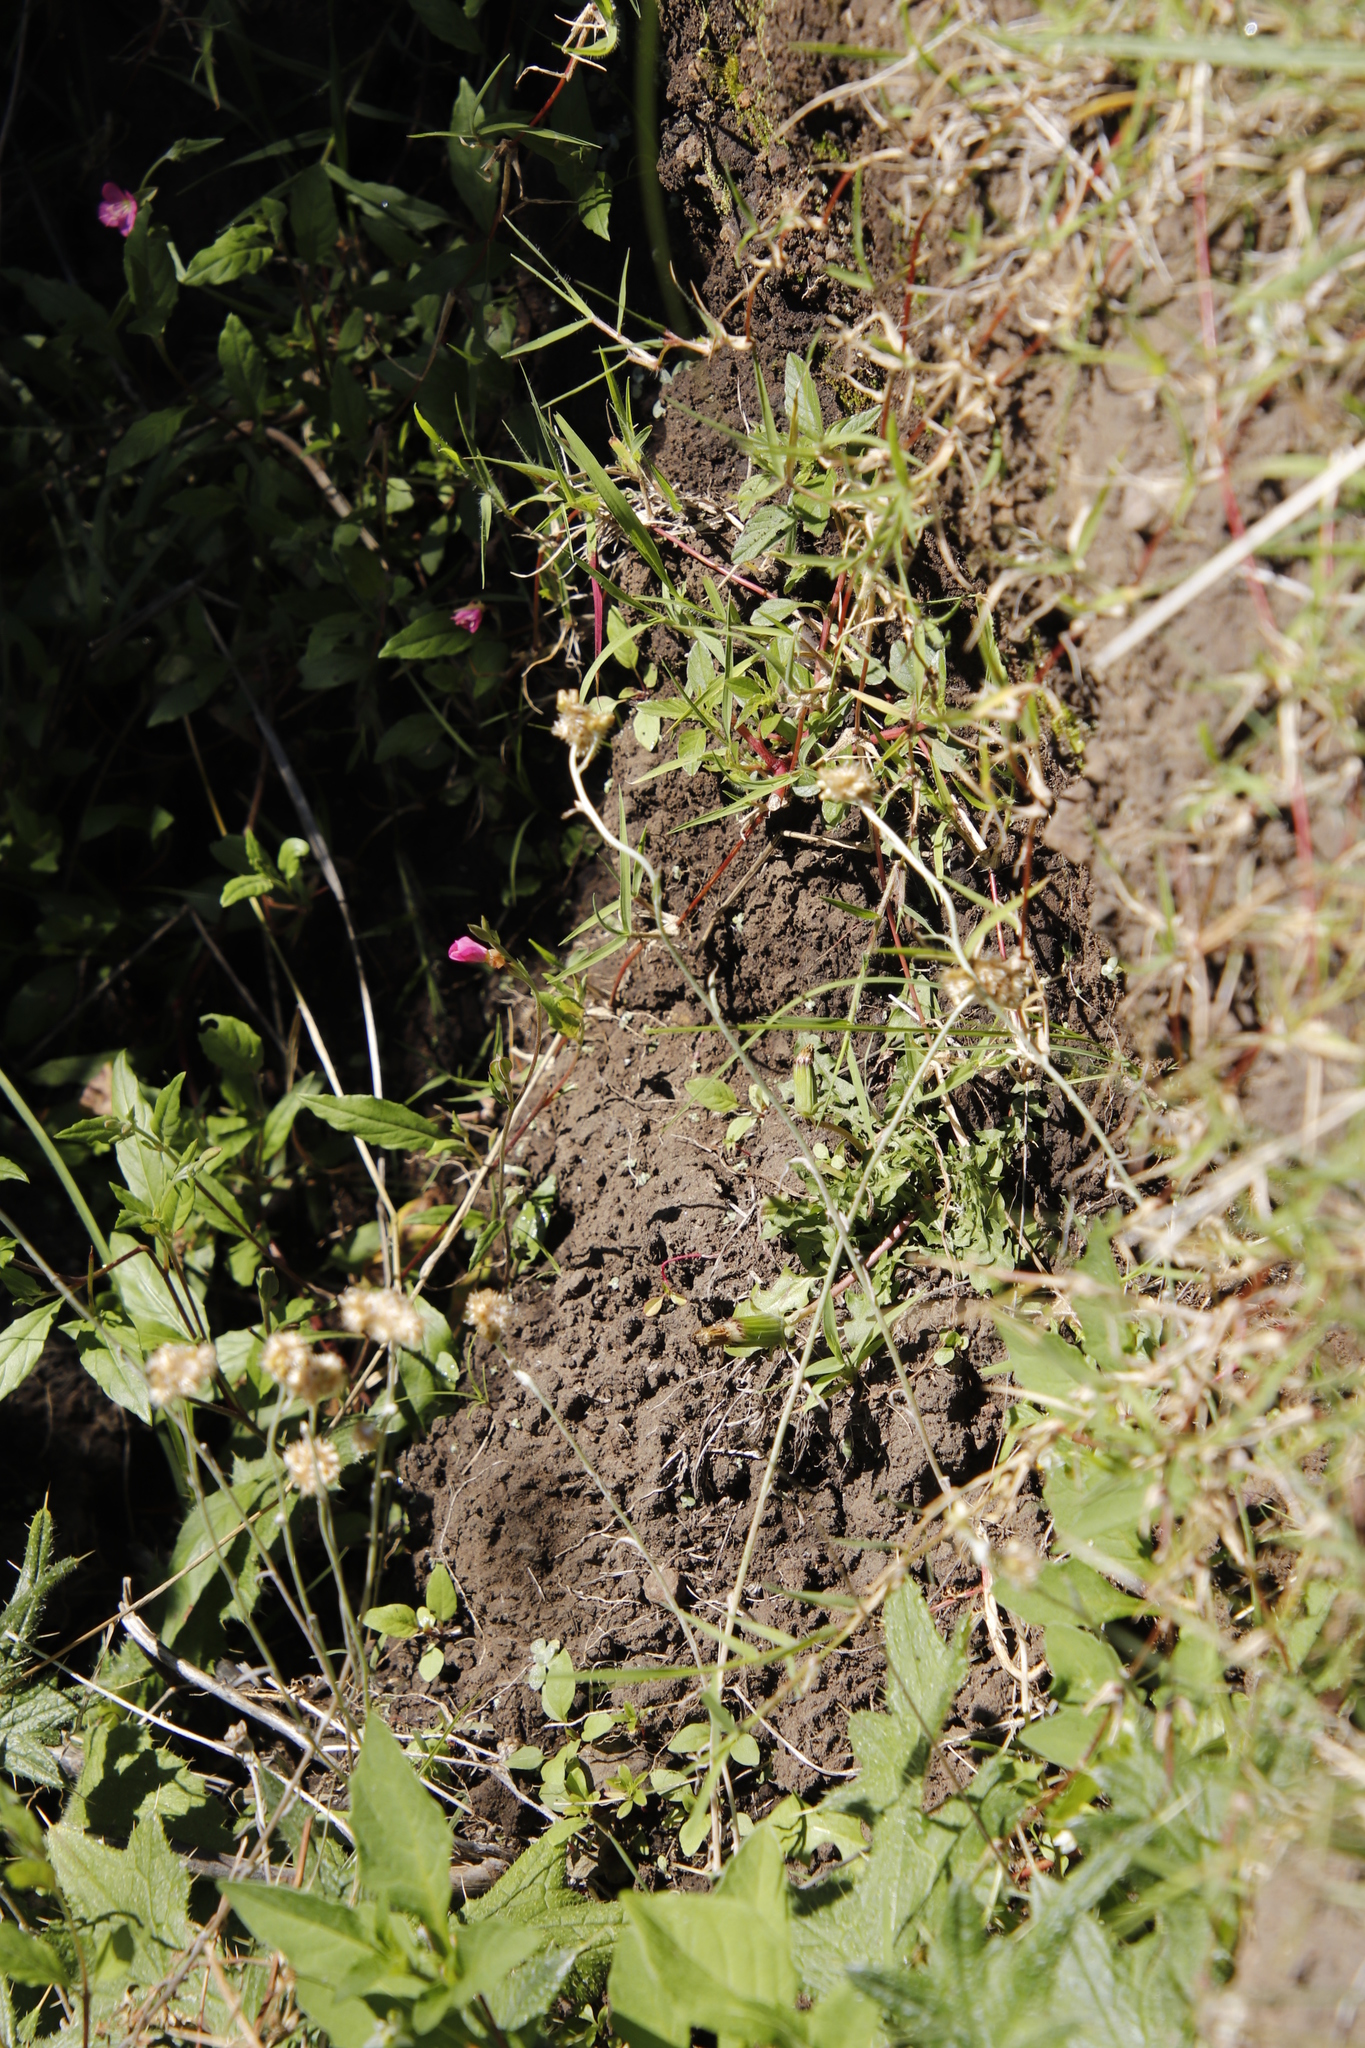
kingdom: Plantae
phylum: Tracheophyta
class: Magnoliopsida
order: Myrtales
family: Onagraceae
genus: Oenothera
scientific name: Oenothera rosea
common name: Rosy evening-primrose
